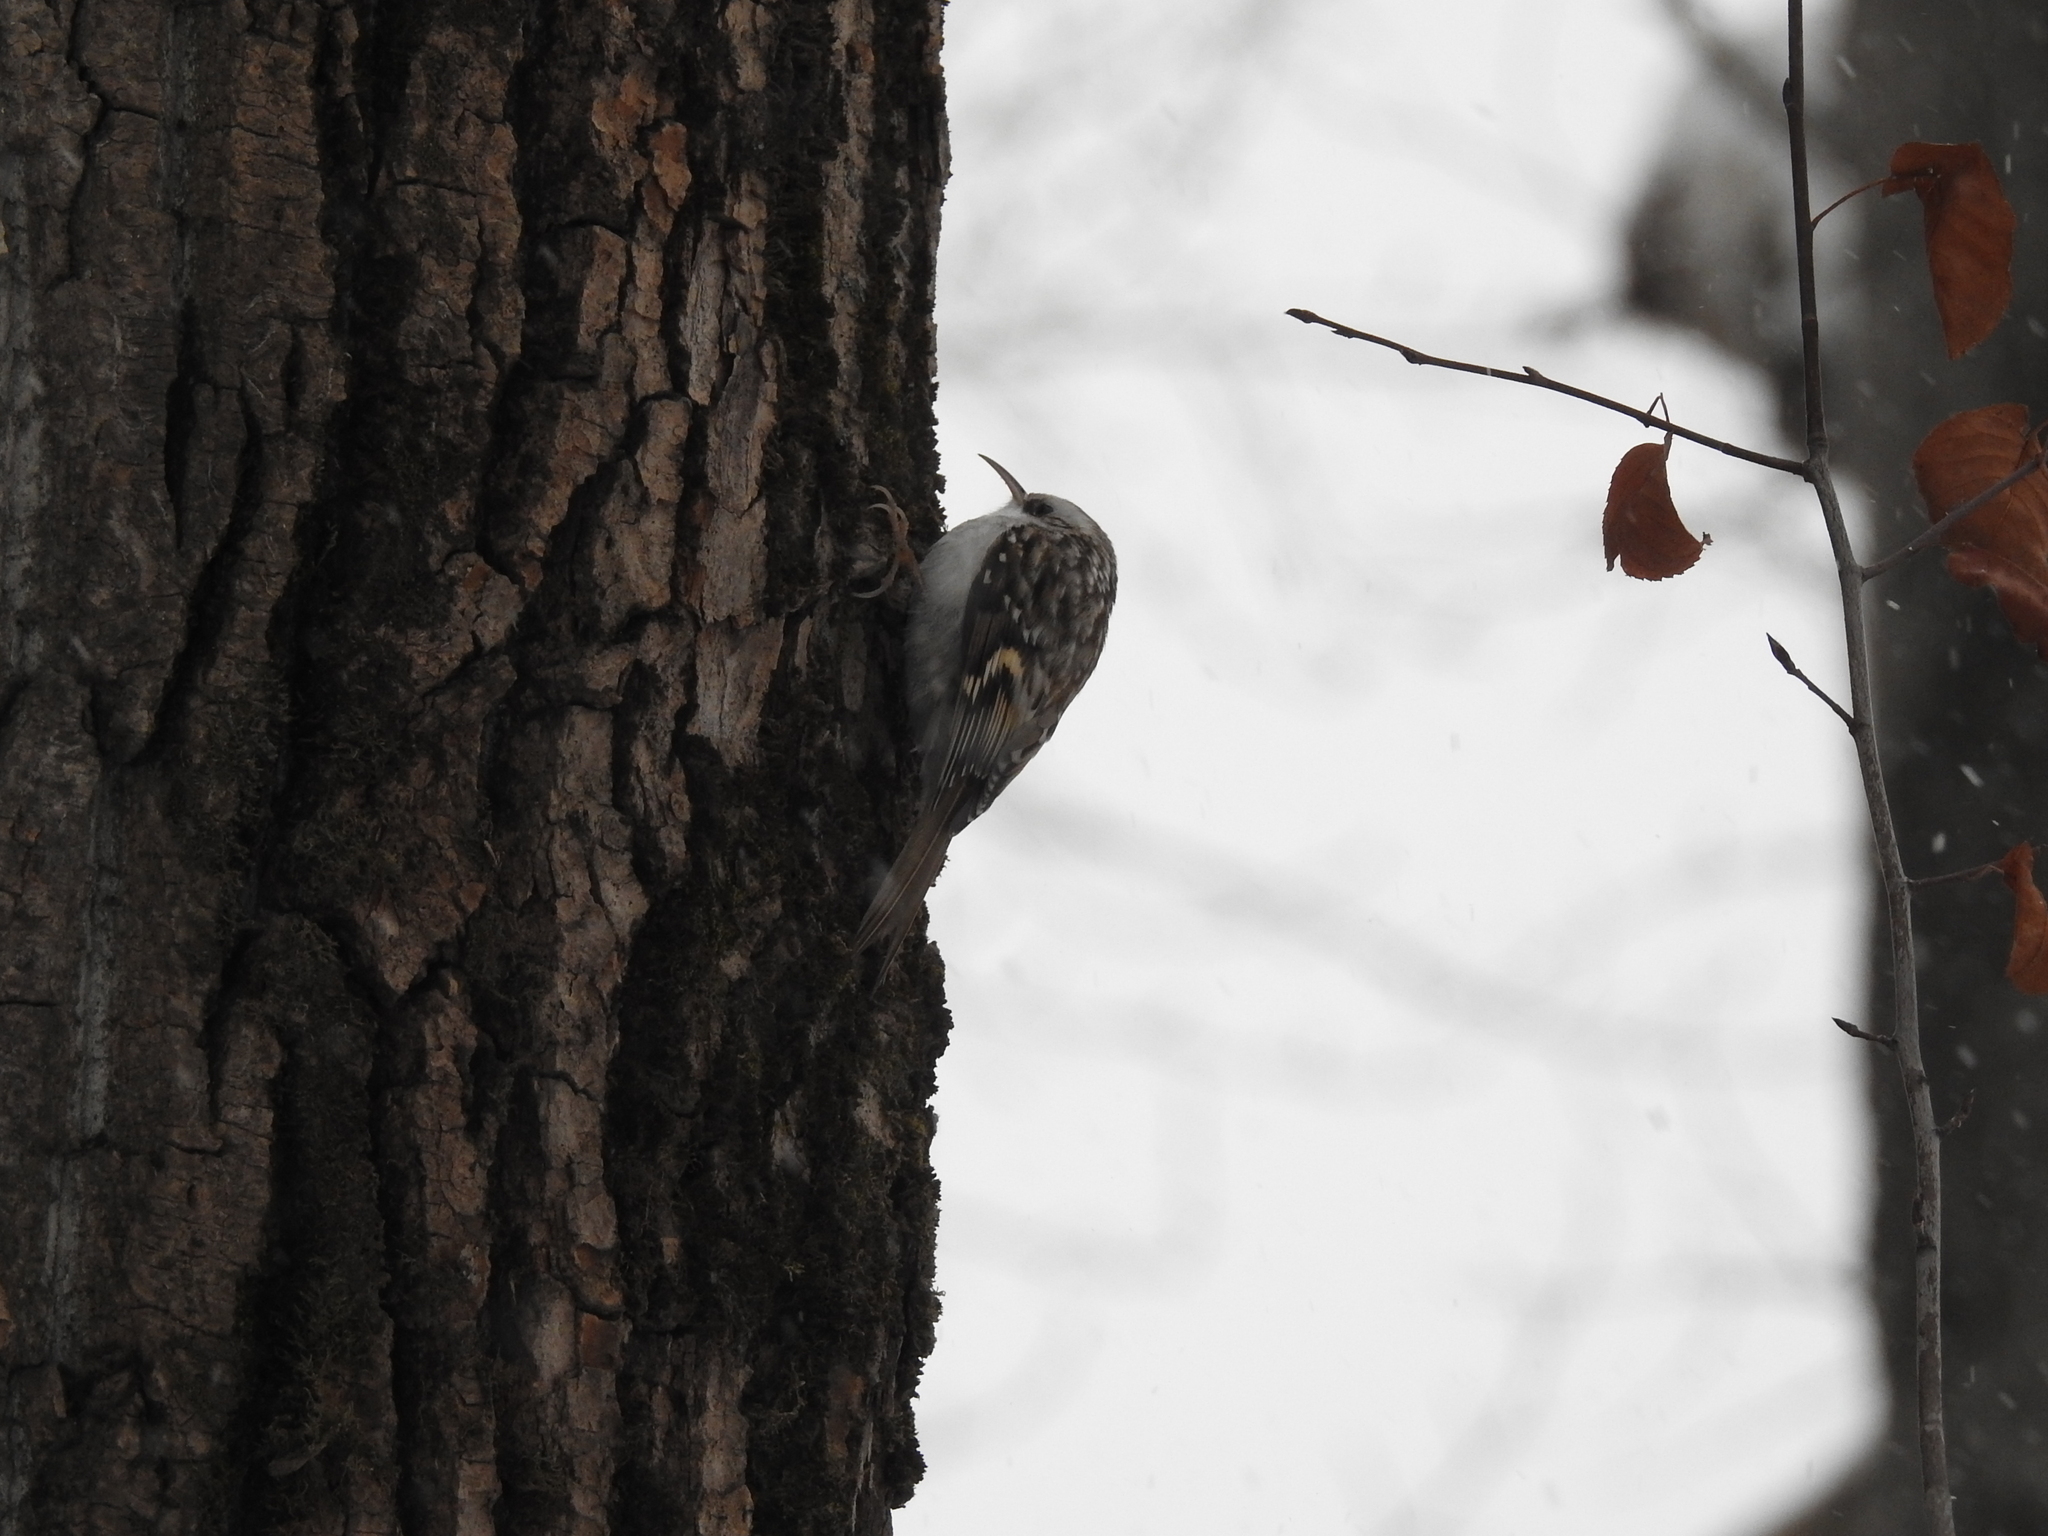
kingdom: Animalia
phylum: Chordata
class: Aves
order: Passeriformes
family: Certhiidae
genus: Certhia
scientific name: Certhia familiaris
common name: Eurasian treecreeper
